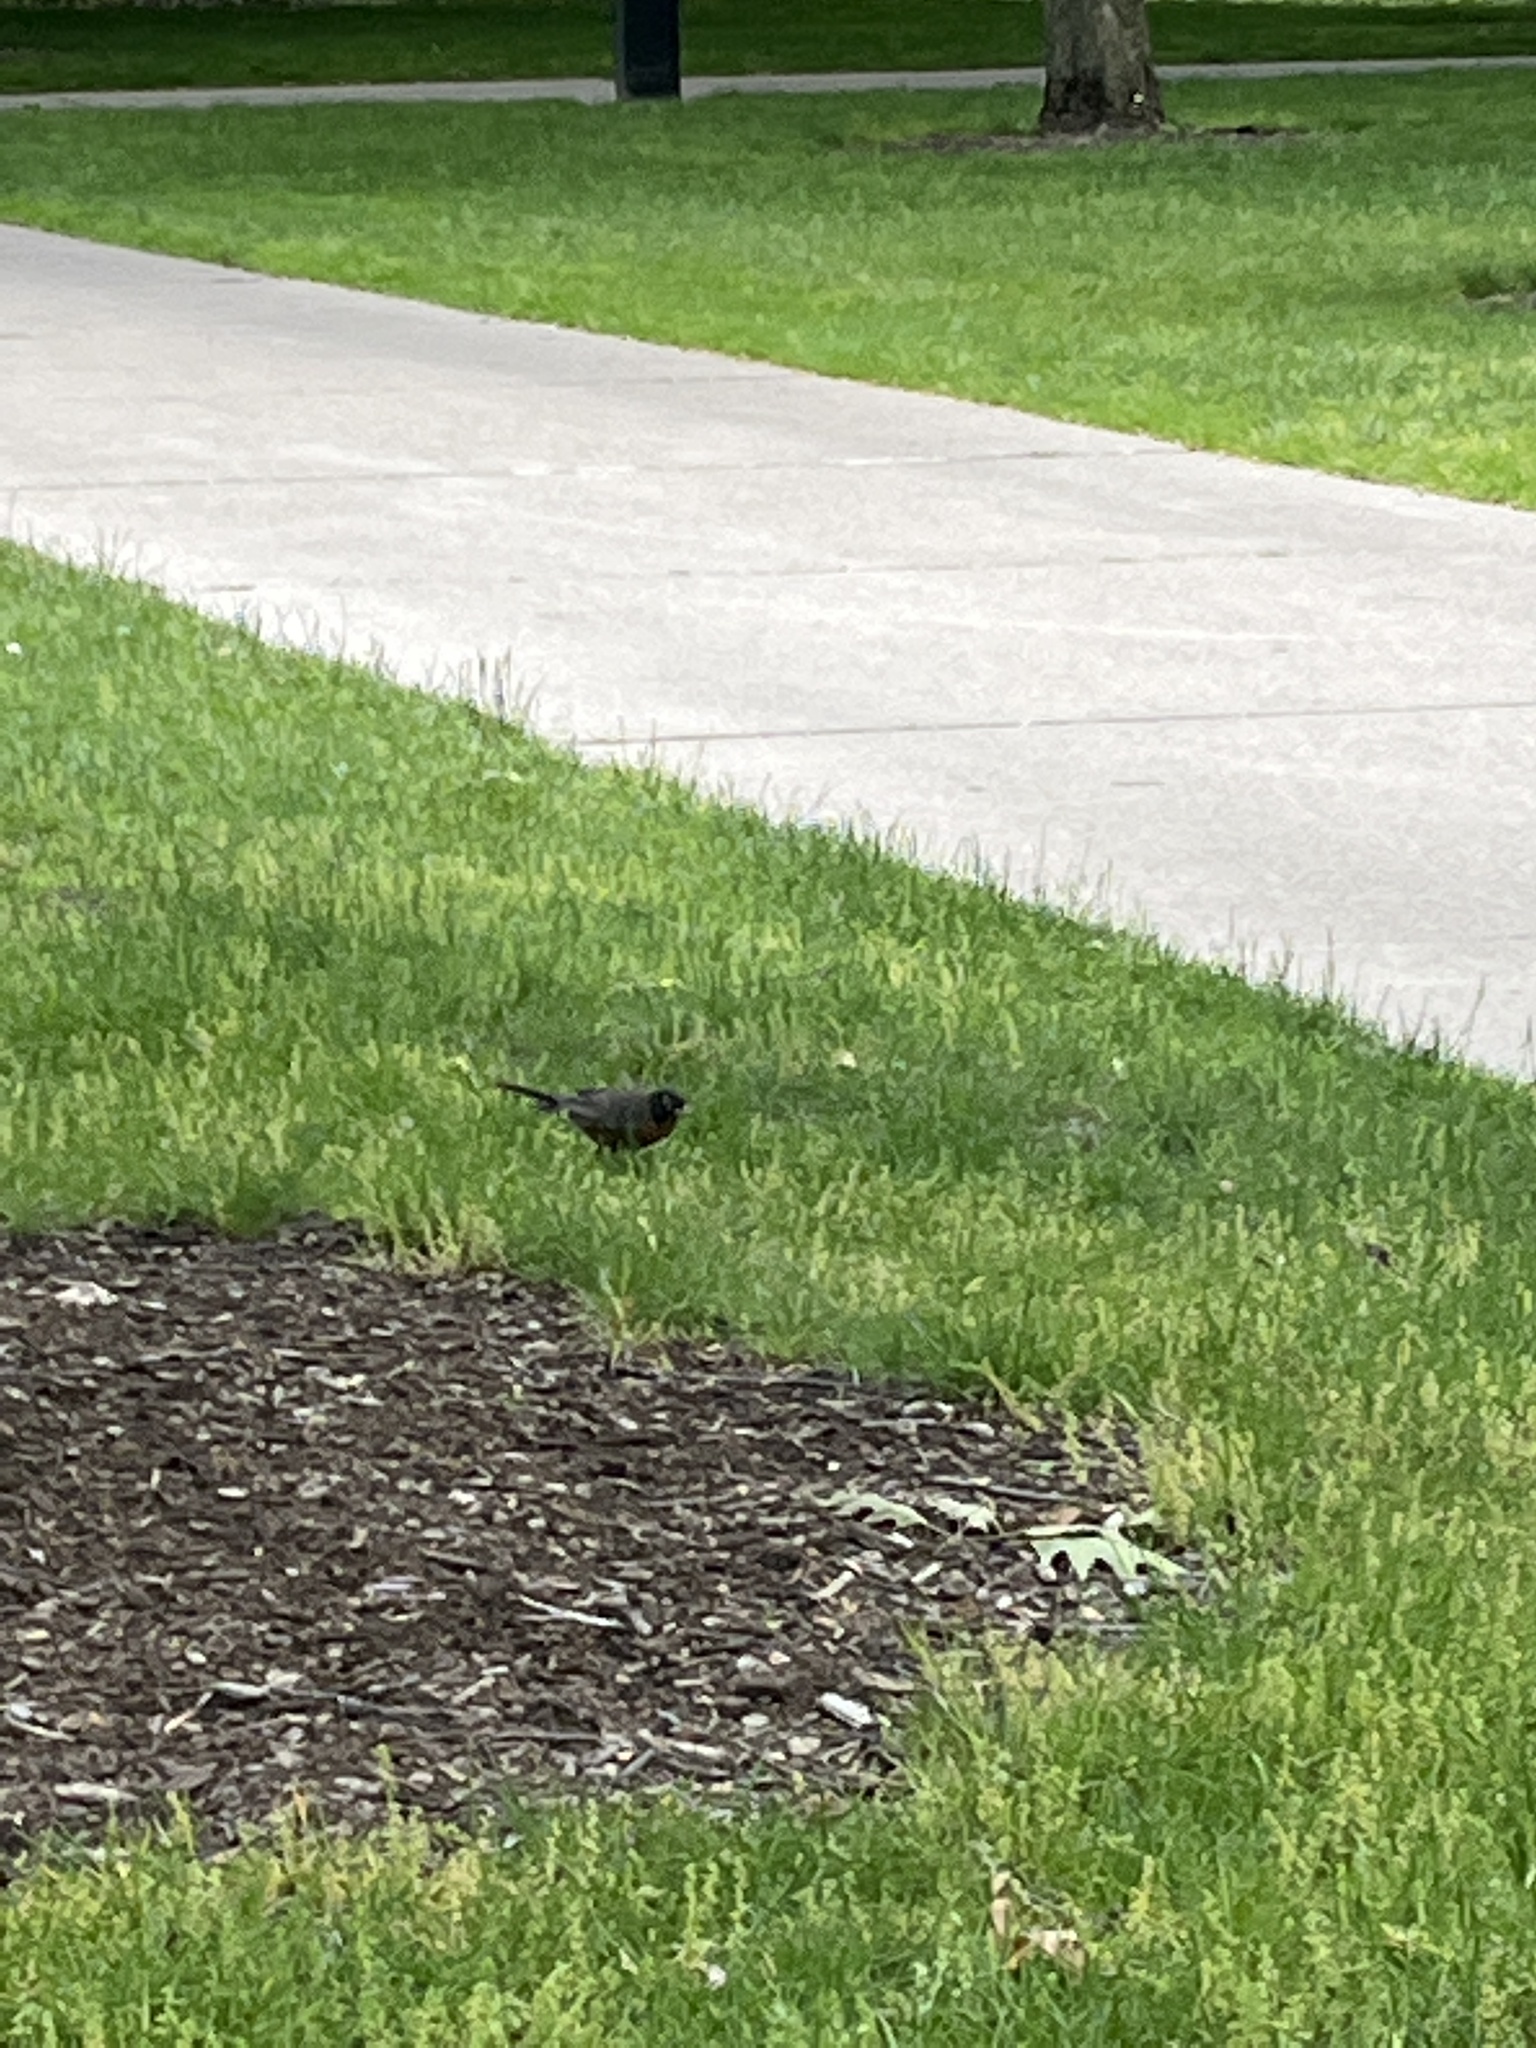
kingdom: Animalia
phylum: Chordata
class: Aves
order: Passeriformes
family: Turdidae
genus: Turdus
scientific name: Turdus migratorius
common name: American robin
